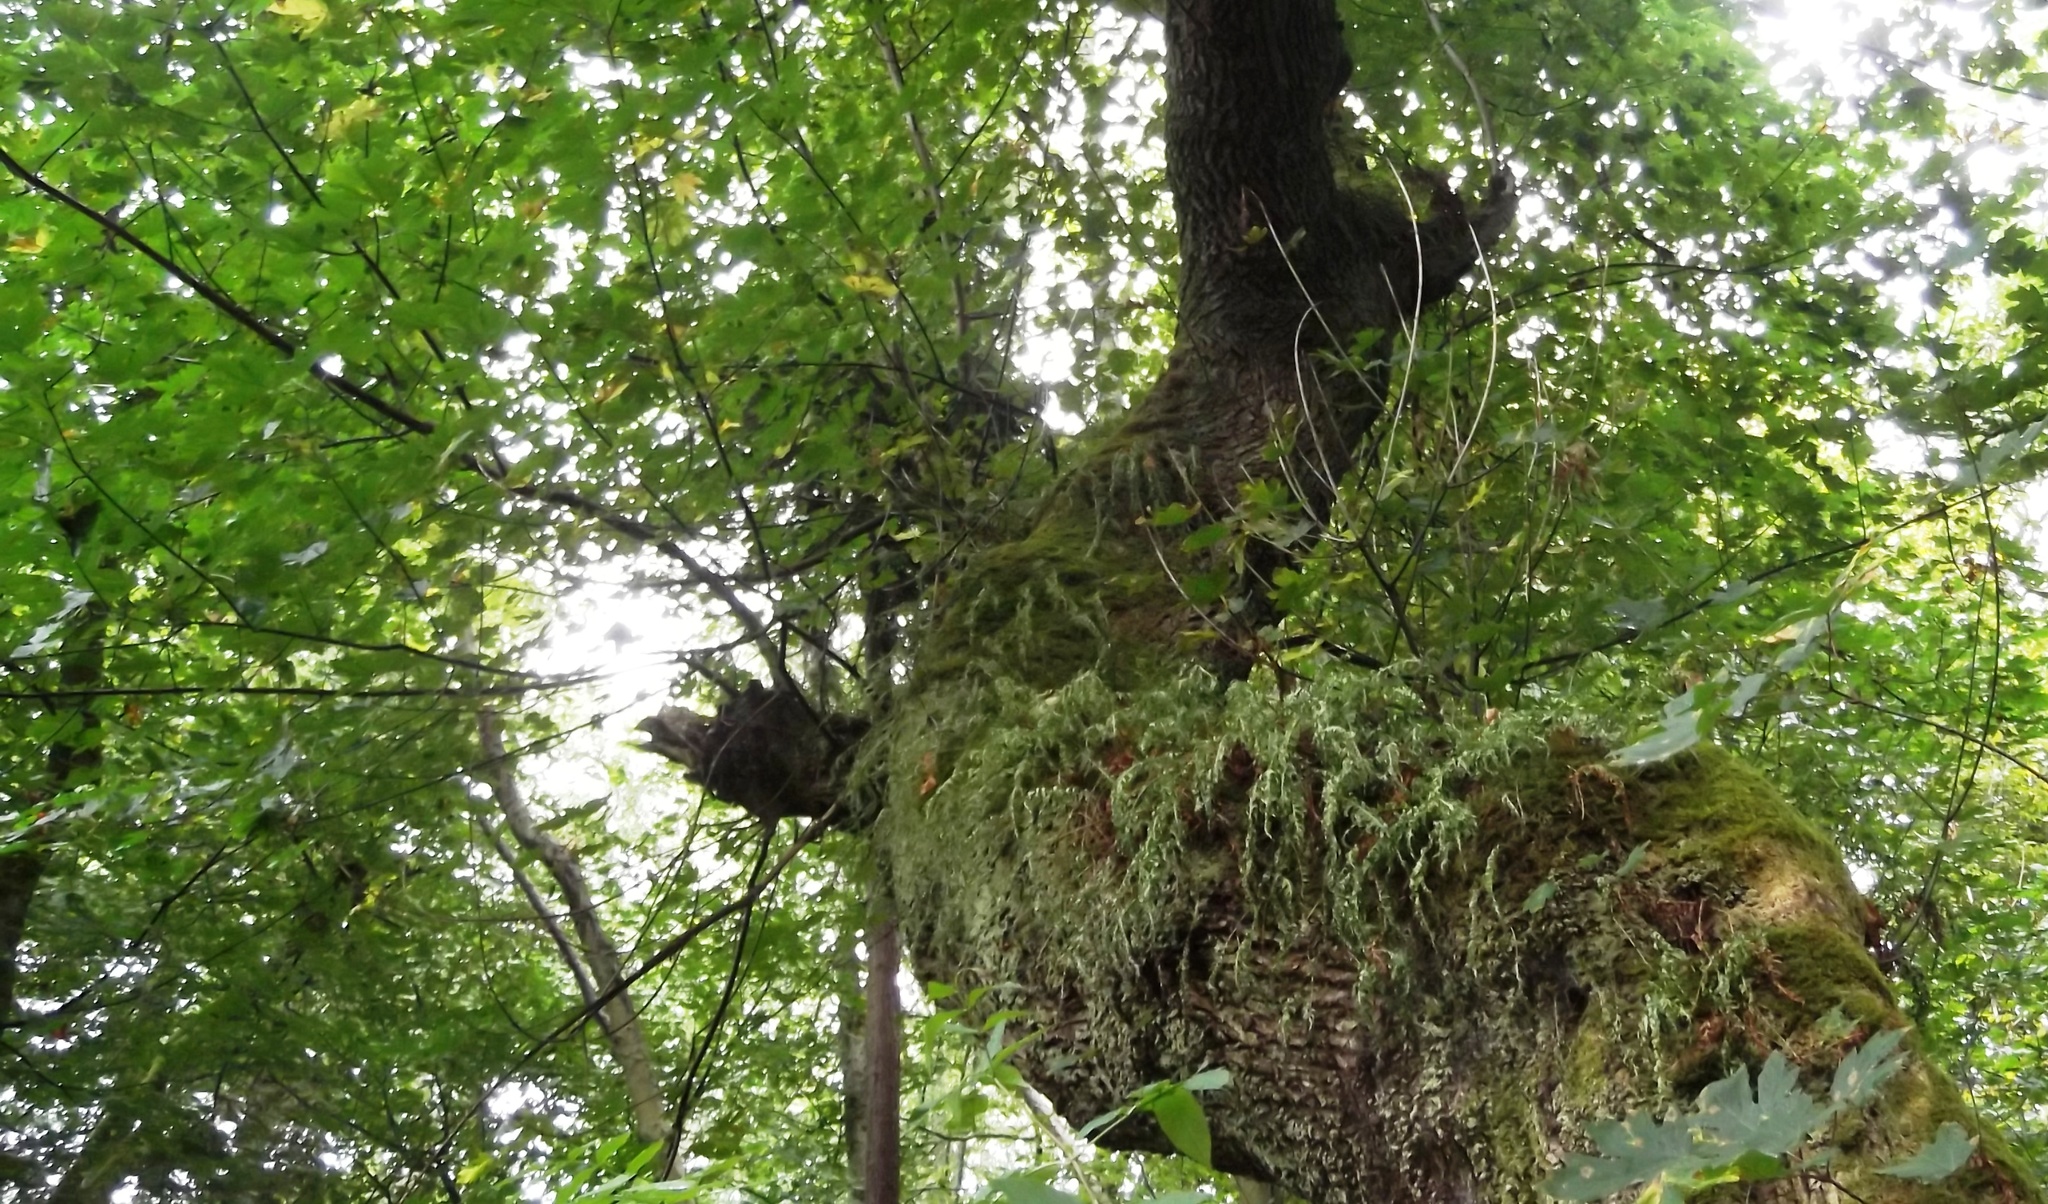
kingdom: Plantae
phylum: Tracheophyta
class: Magnoliopsida
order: Sapindales
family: Sapindaceae
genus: Acer
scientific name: Acer macrophyllum
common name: Oregon maple
